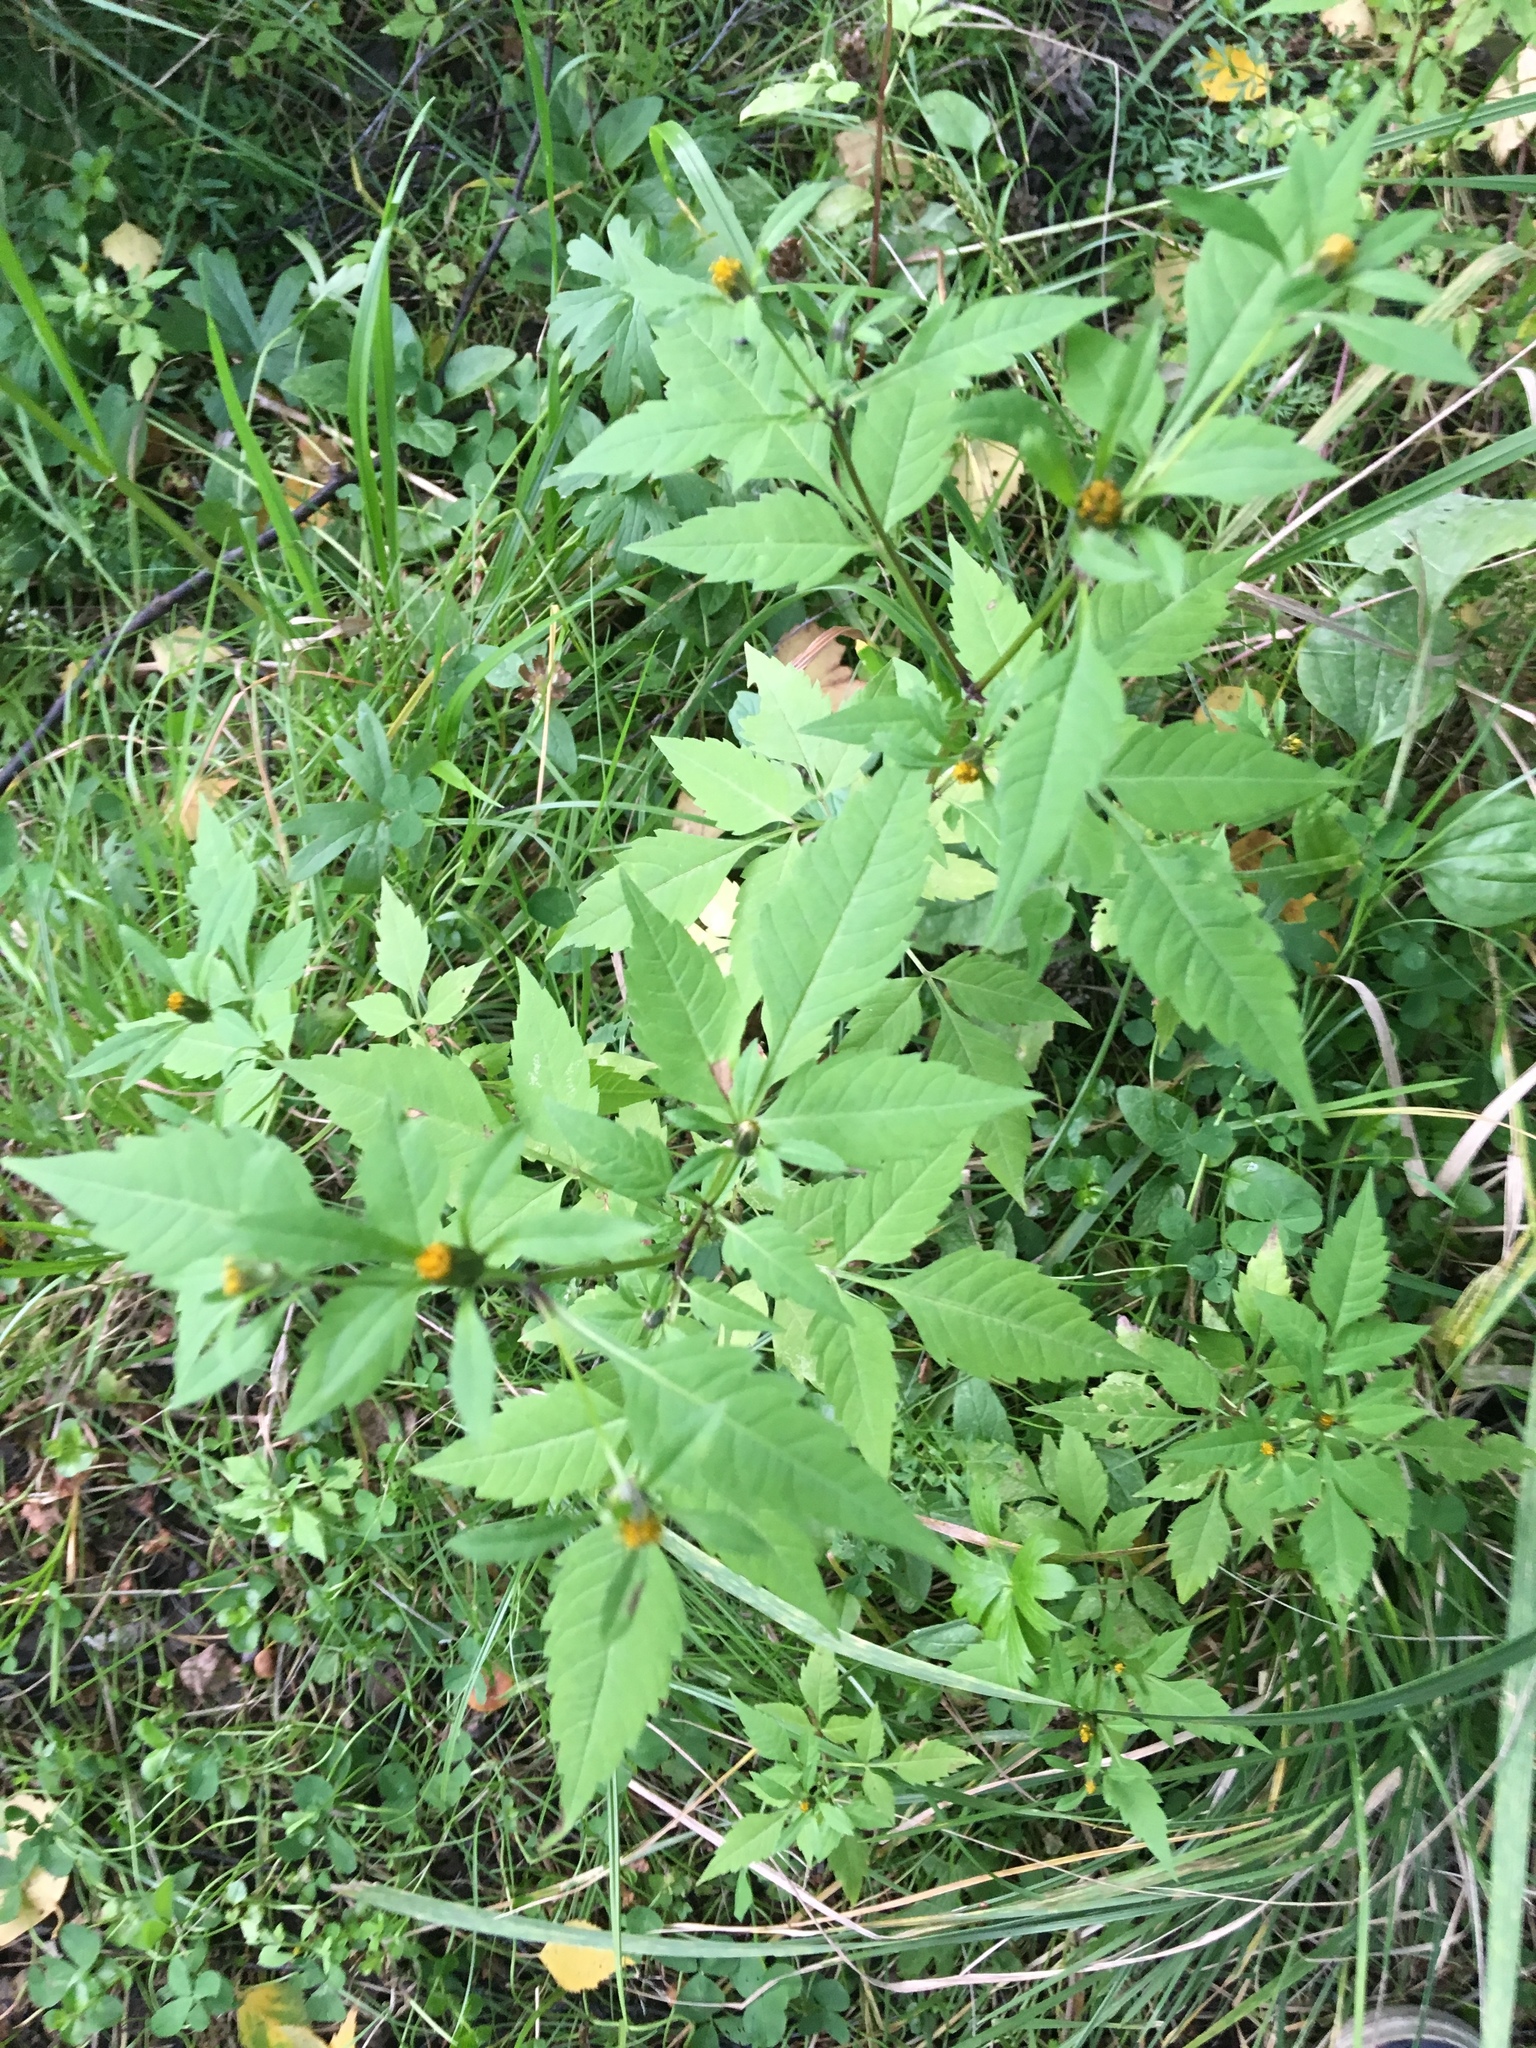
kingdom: Plantae
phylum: Tracheophyta
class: Magnoliopsida
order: Asterales
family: Asteraceae
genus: Bidens
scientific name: Bidens frondosa
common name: Beggarticks
